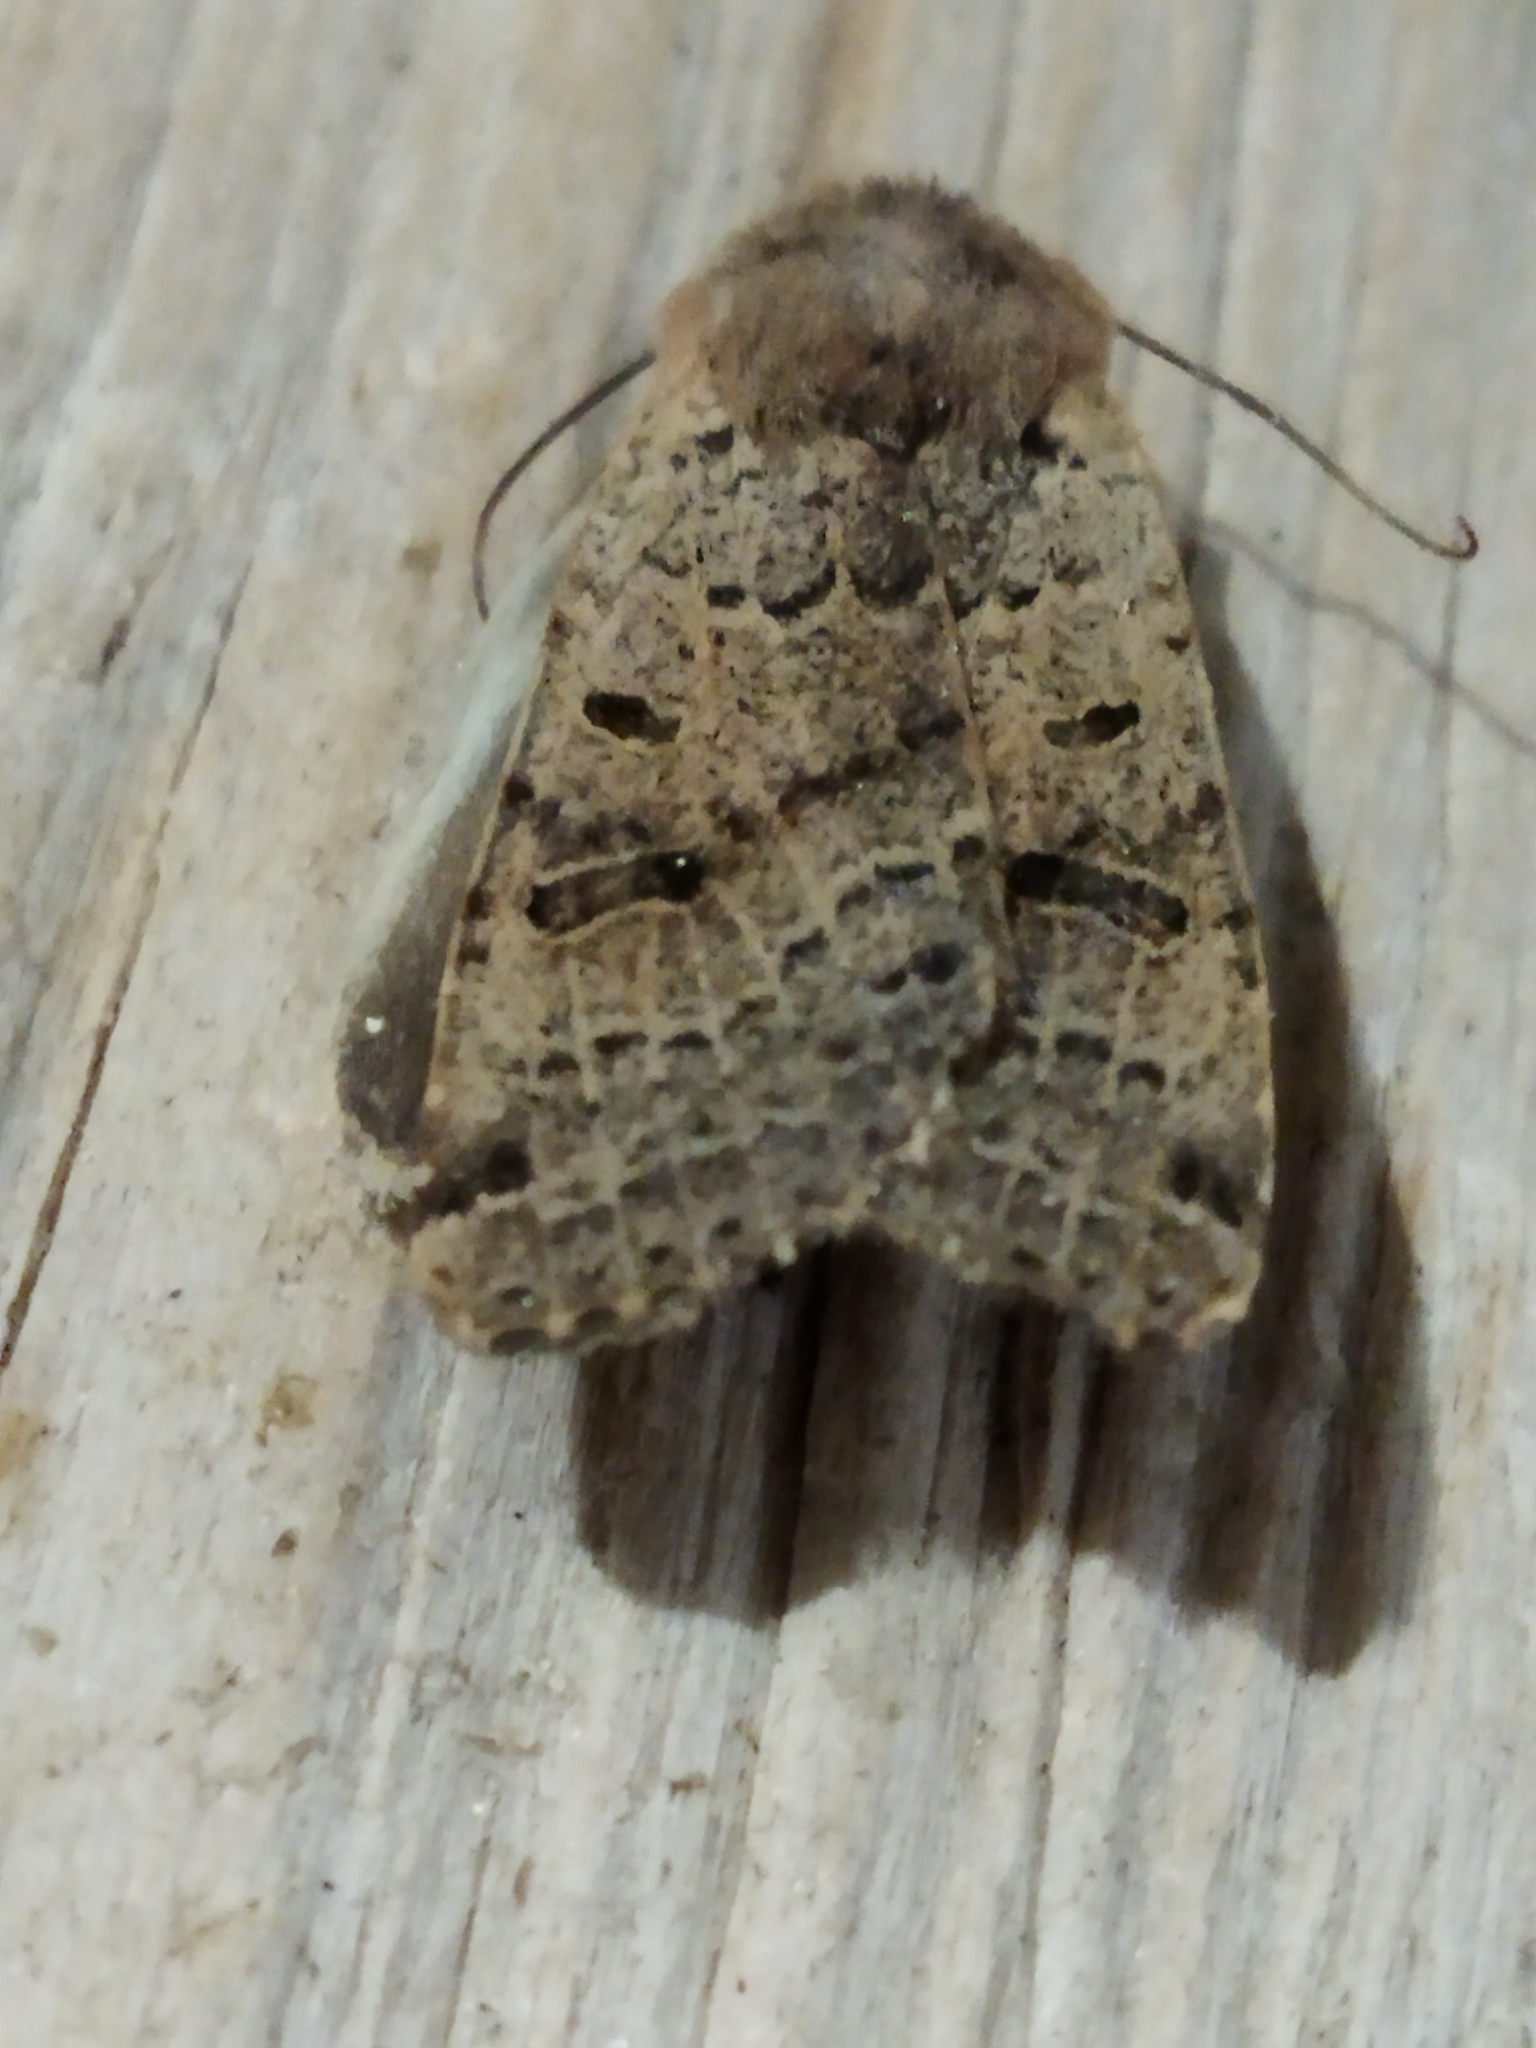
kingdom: Animalia
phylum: Arthropoda
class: Insecta
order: Lepidoptera
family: Noctuidae
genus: Agrochola
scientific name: Agrochola lychnidis
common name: Beaded chestnut
